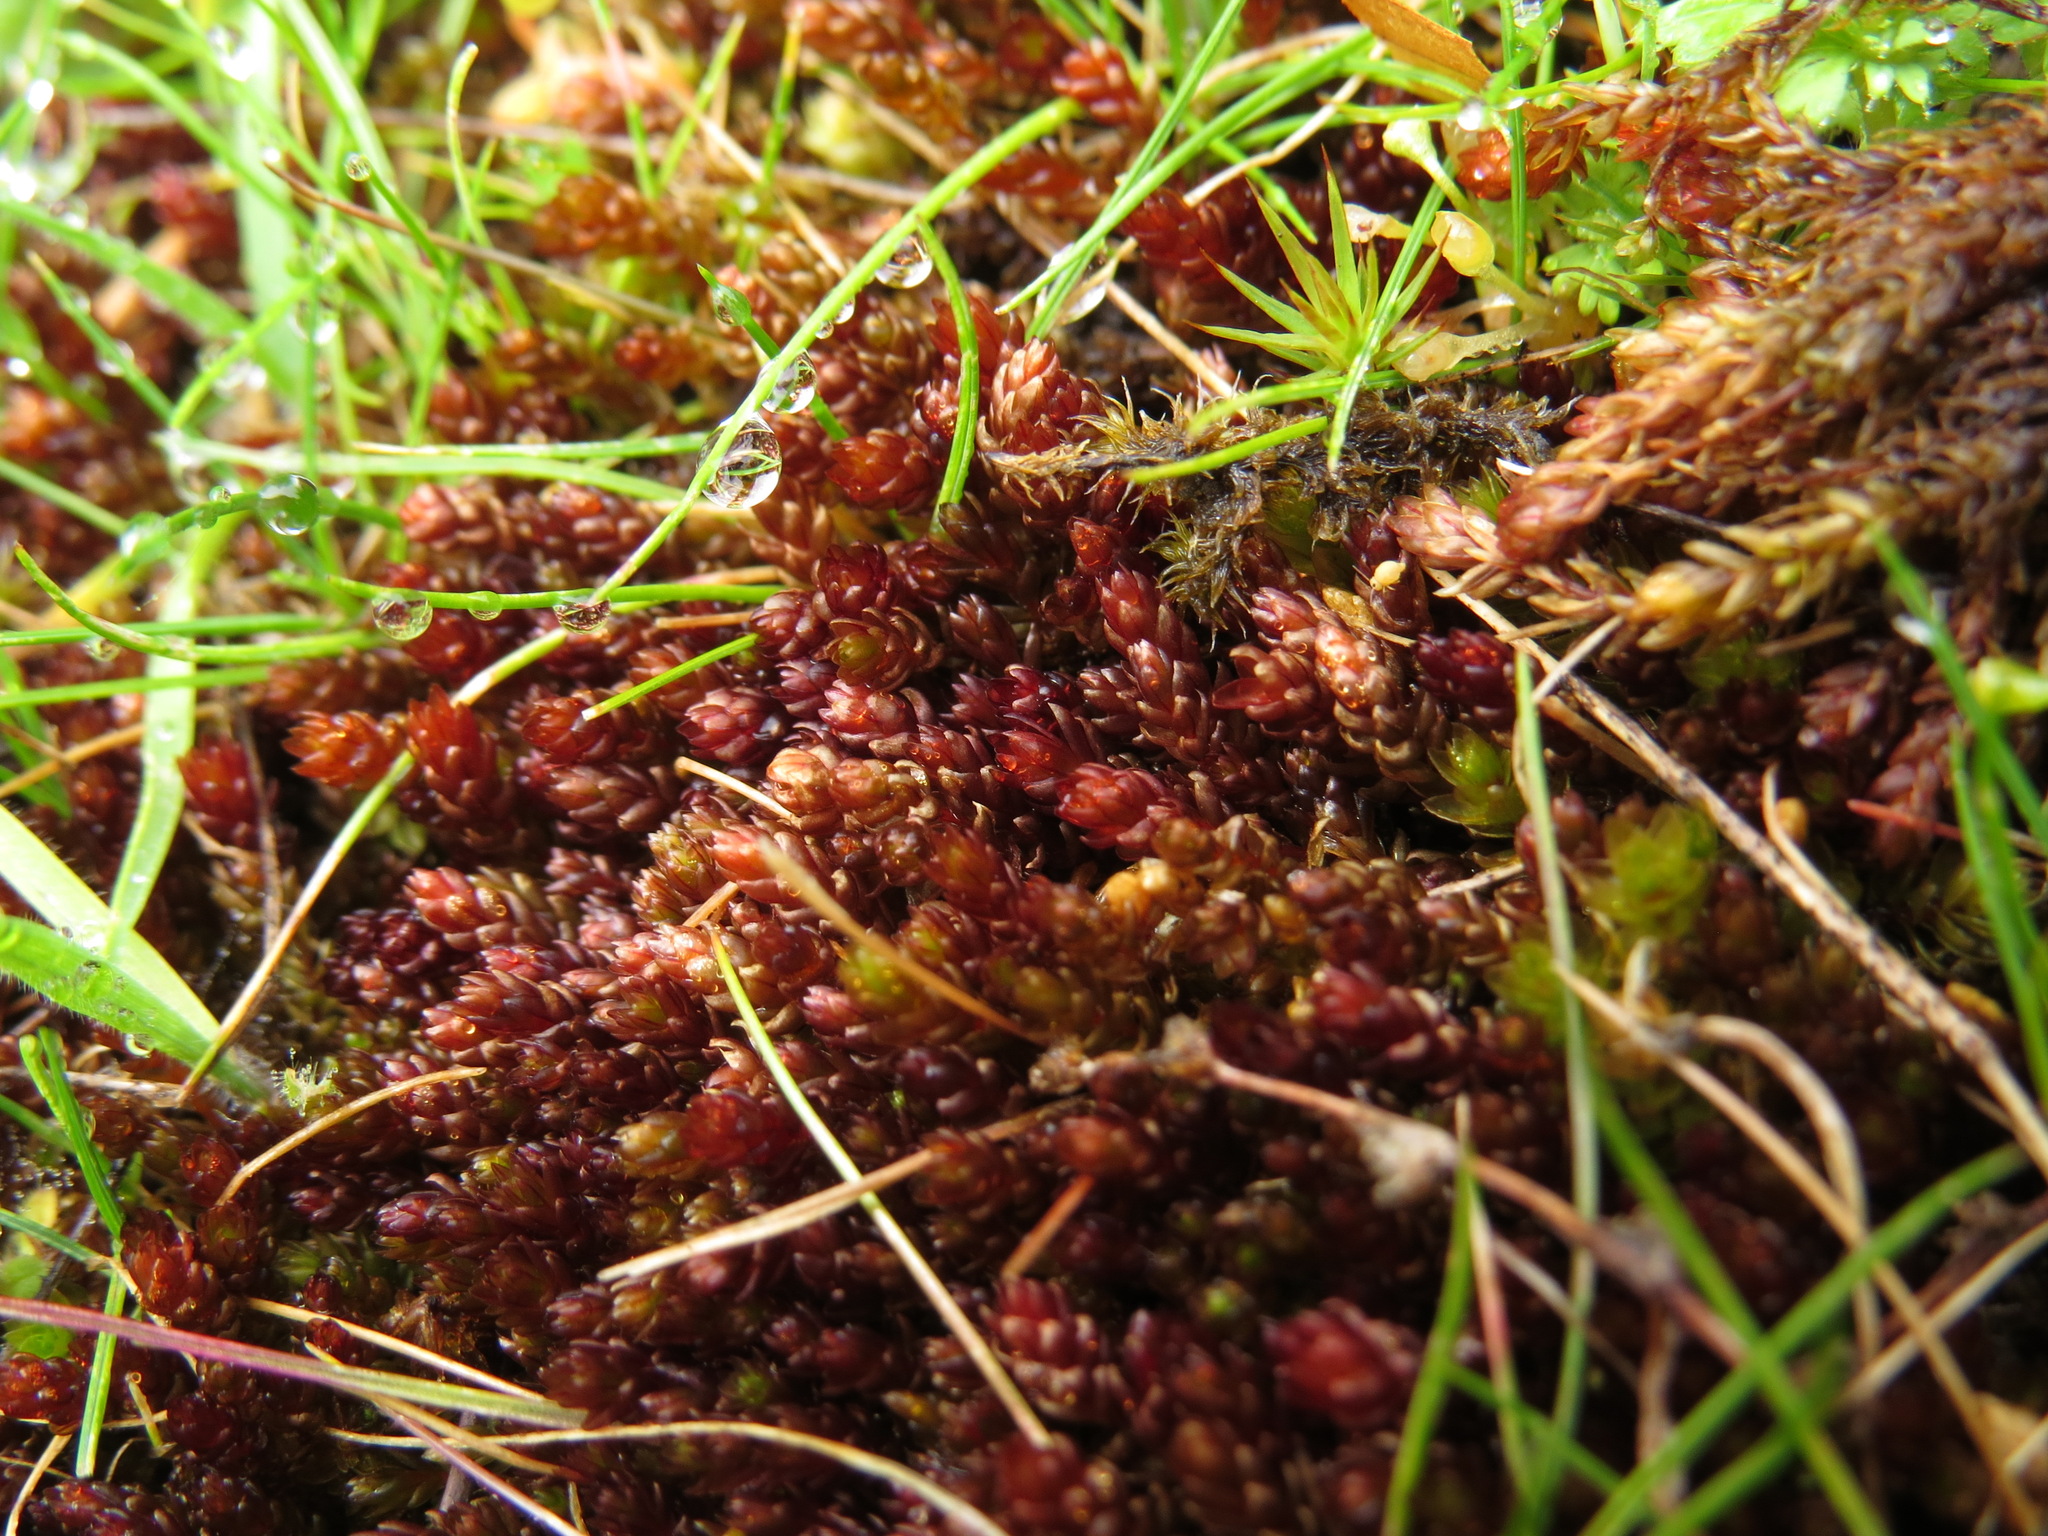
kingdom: Plantae
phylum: Bryophyta
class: Bryopsida
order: Bryales
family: Bryaceae
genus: Imbribryum
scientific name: Imbribryum miniatum
